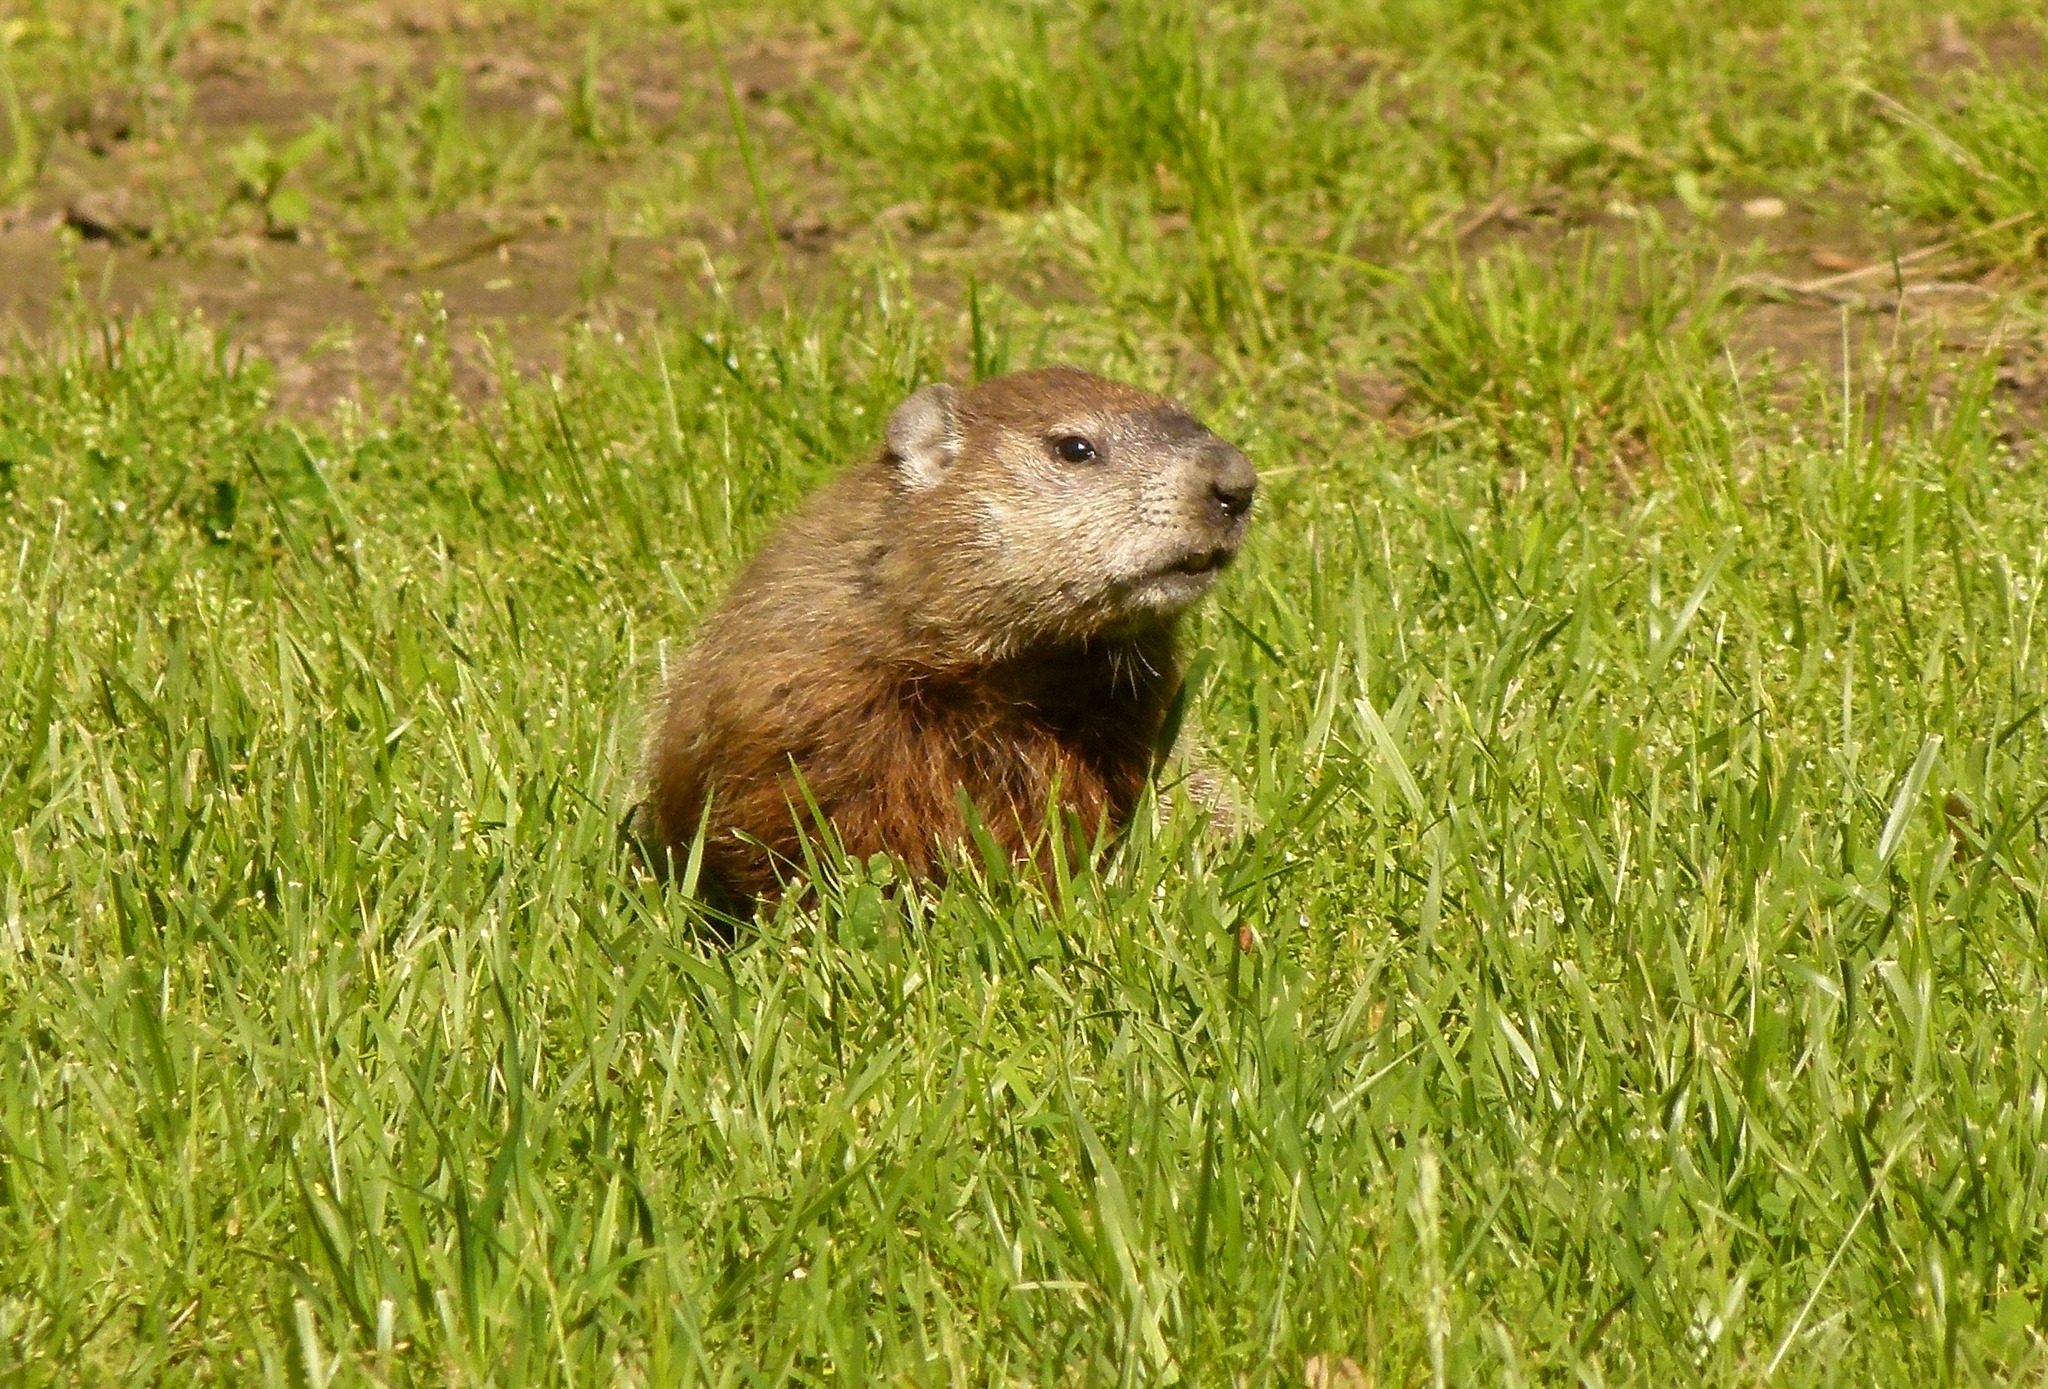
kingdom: Animalia
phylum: Chordata
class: Mammalia
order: Rodentia
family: Sciuridae
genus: Marmota
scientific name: Marmota monax
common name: Groundhog
